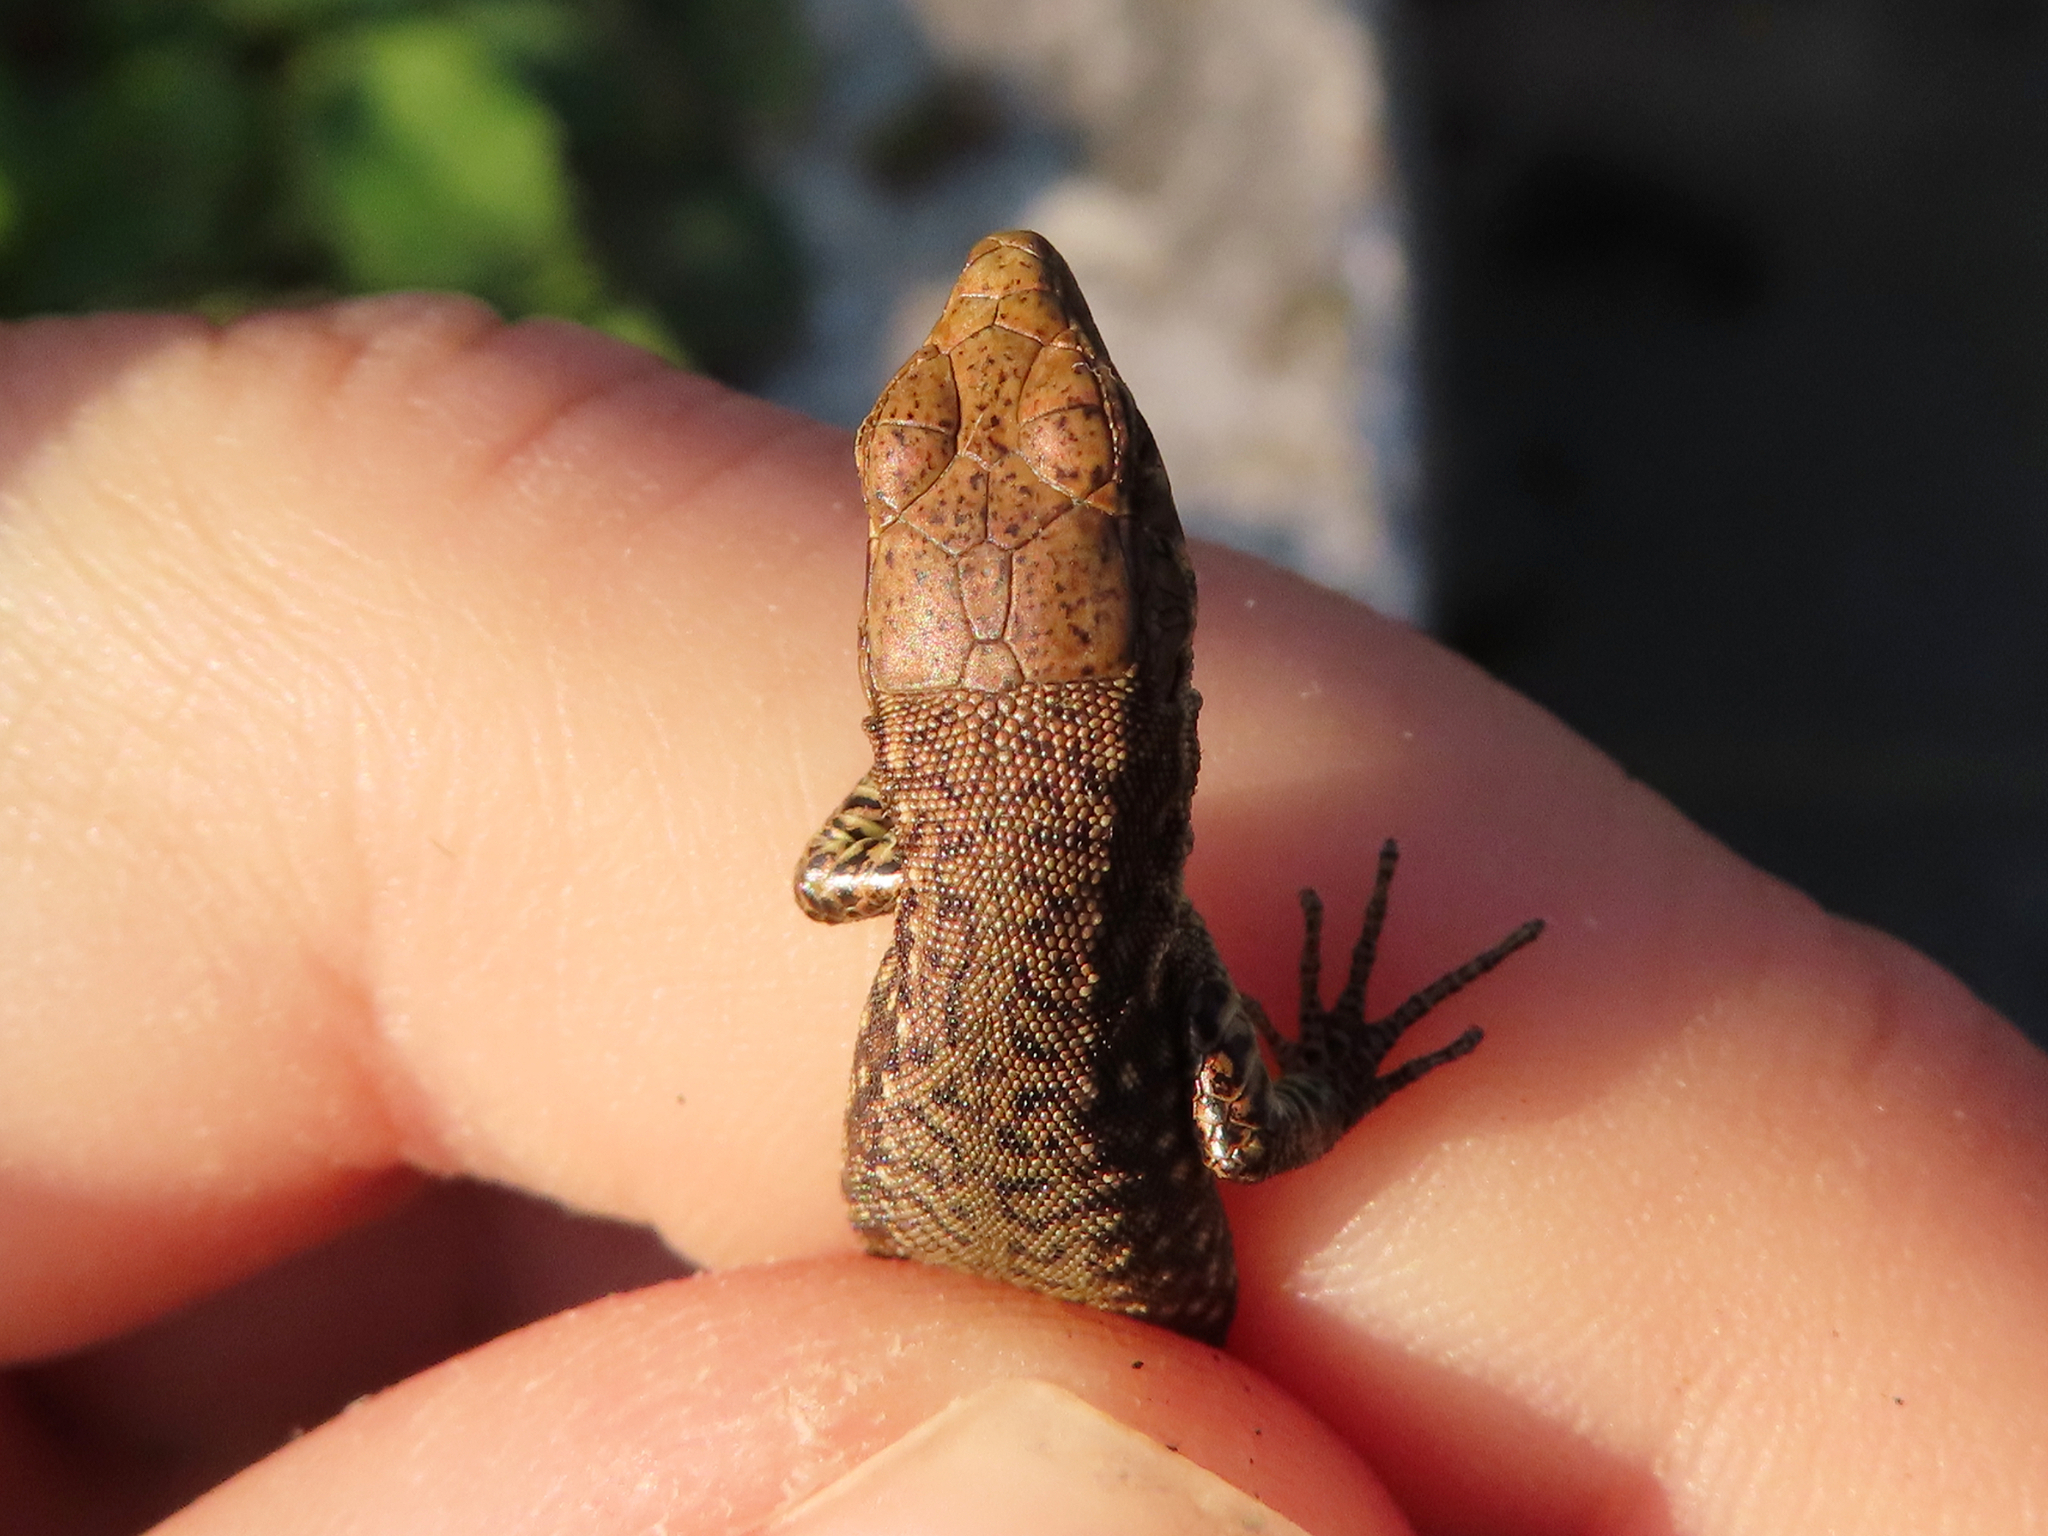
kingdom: Animalia
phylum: Chordata
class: Squamata
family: Lacertidae
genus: Darevskia
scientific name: Darevskia mixta
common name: Ajarian lizard
